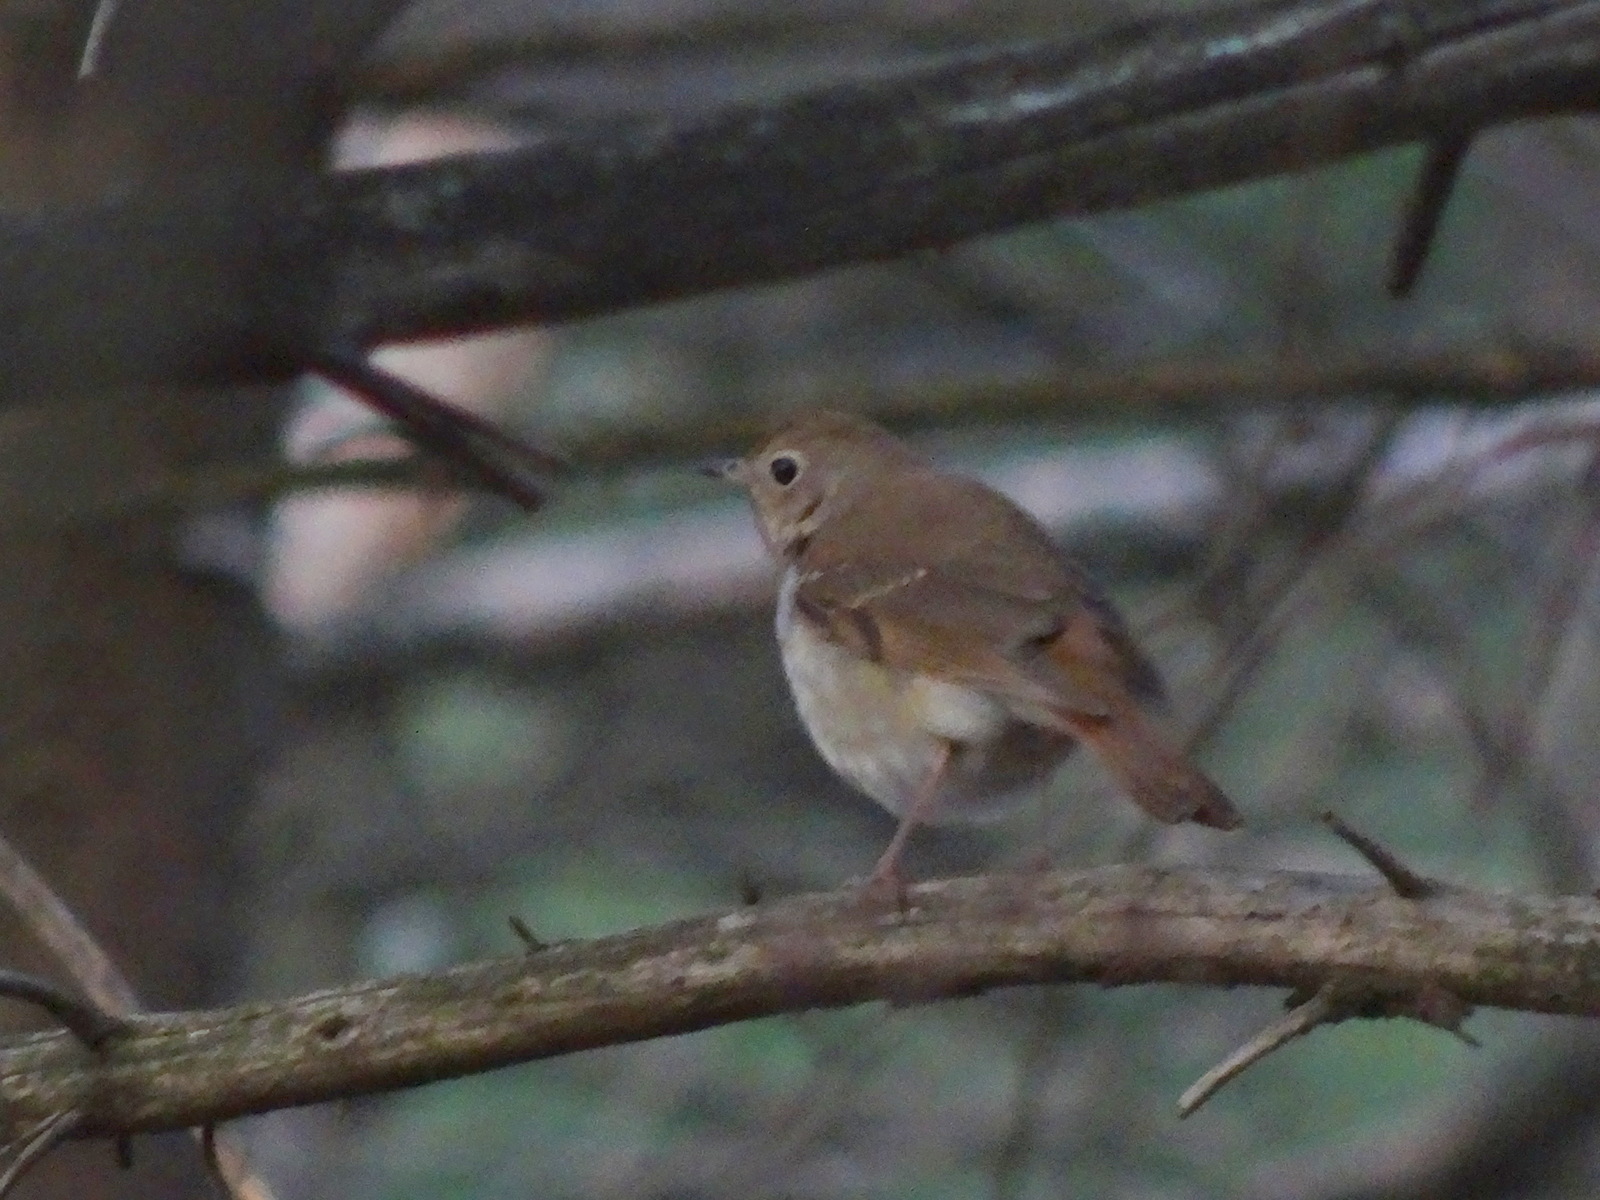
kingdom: Animalia
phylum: Chordata
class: Aves
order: Passeriformes
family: Turdidae
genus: Catharus
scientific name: Catharus guttatus
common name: Hermit thrush
